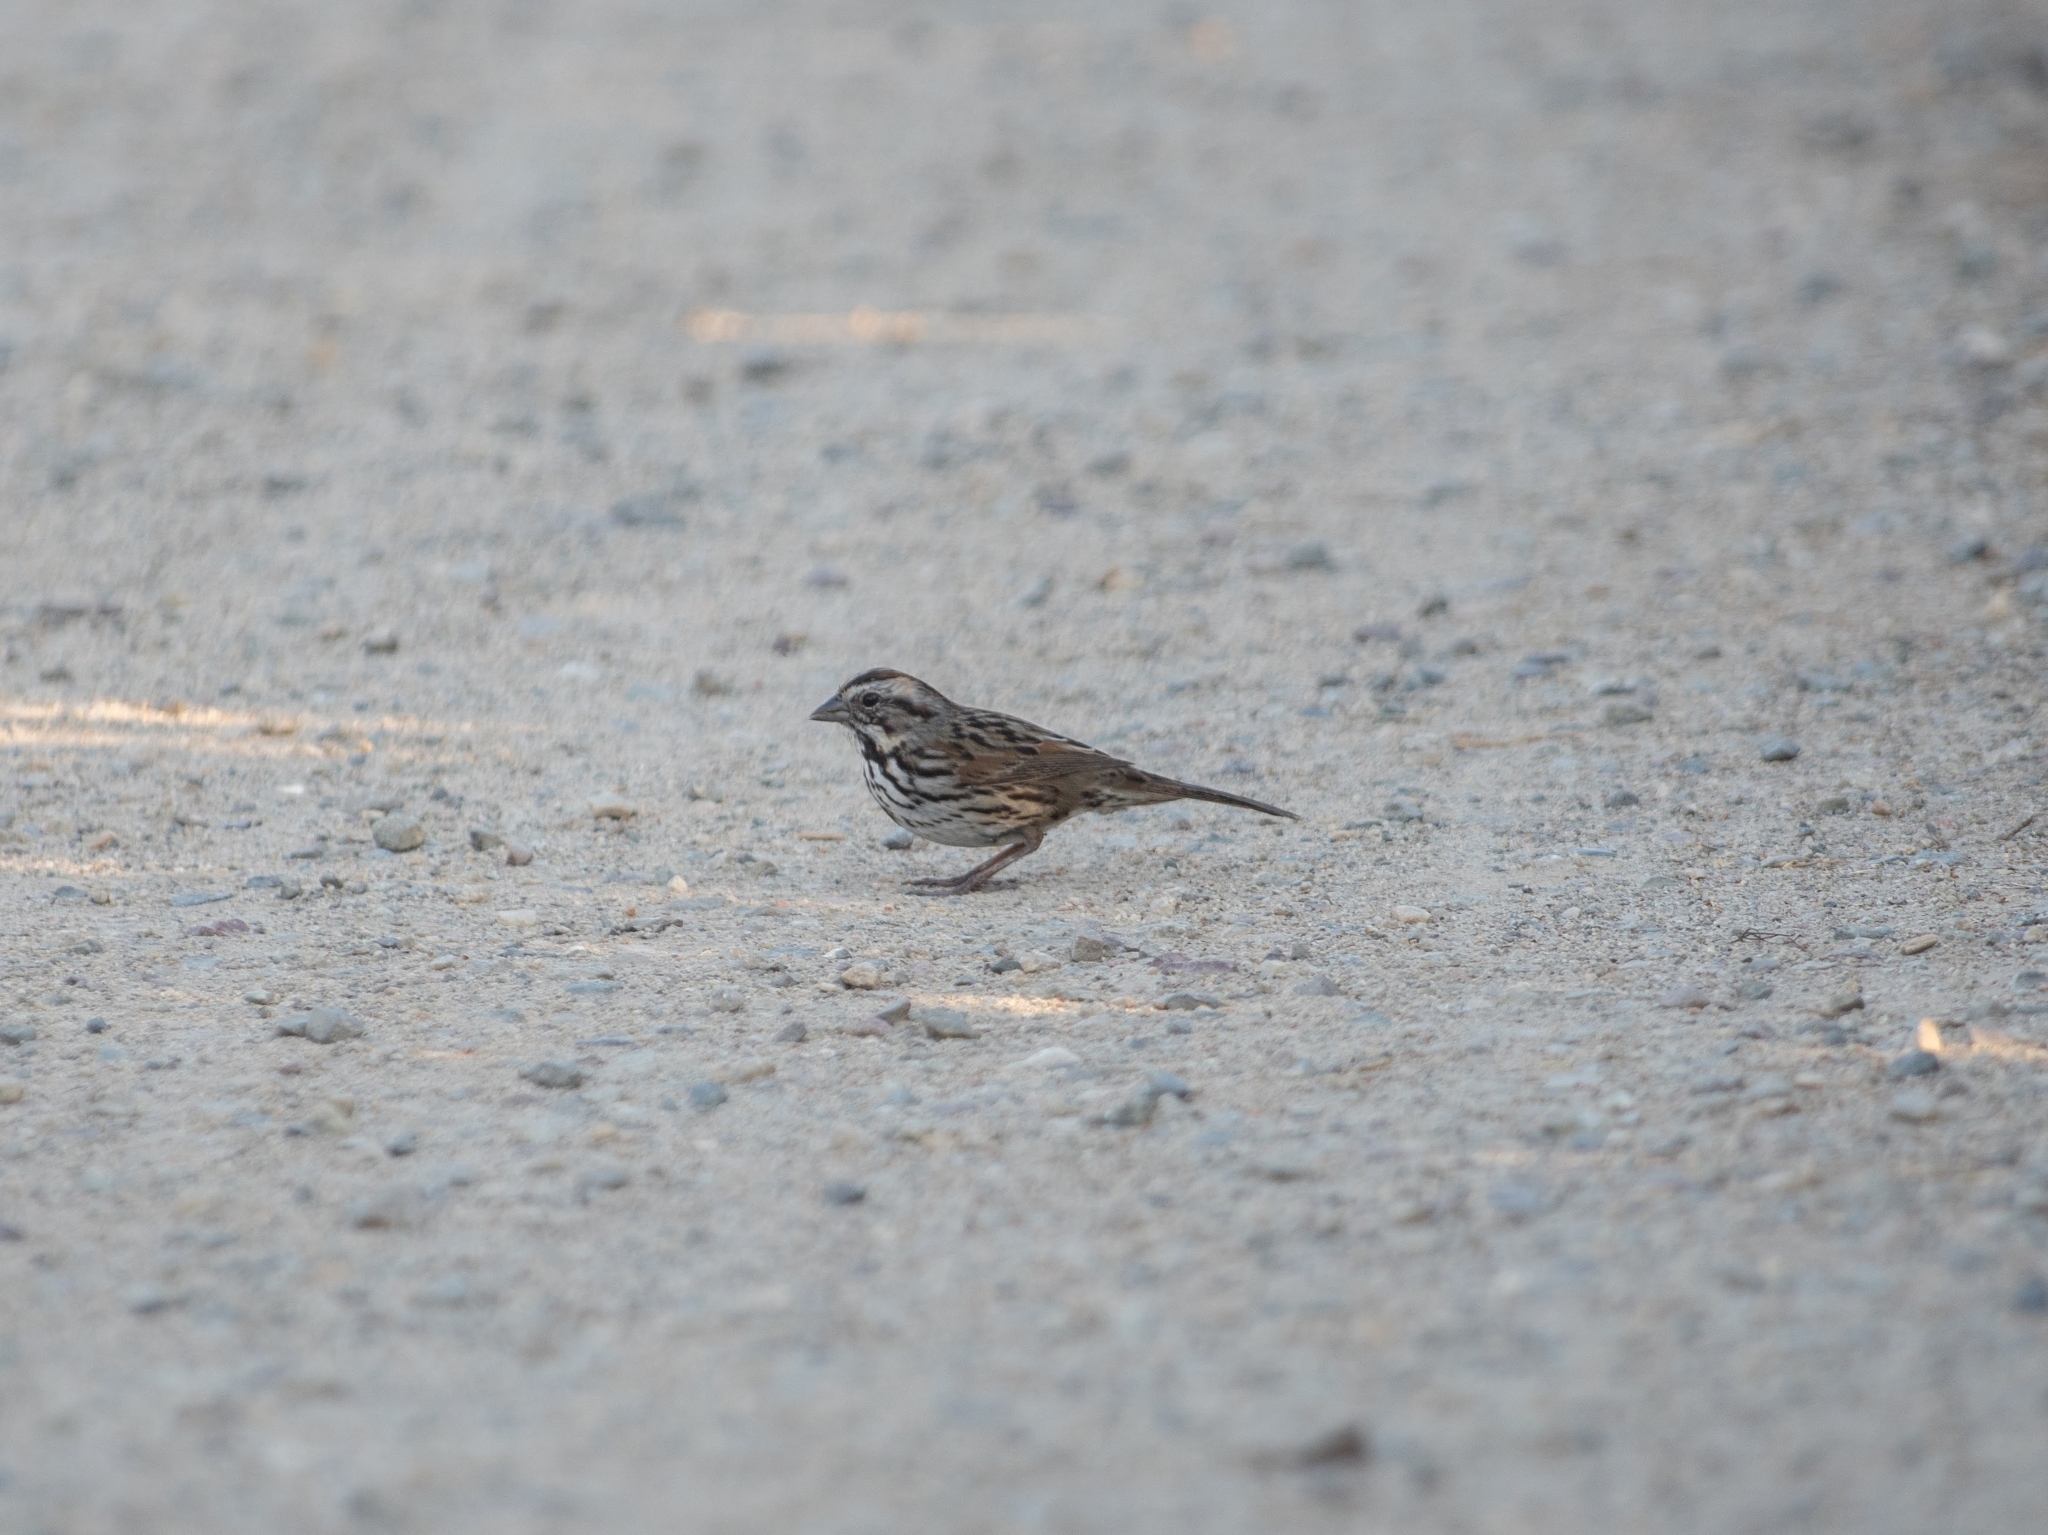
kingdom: Animalia
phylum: Chordata
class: Aves
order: Passeriformes
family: Passerellidae
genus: Melospiza
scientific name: Melospiza melodia
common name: Song sparrow
